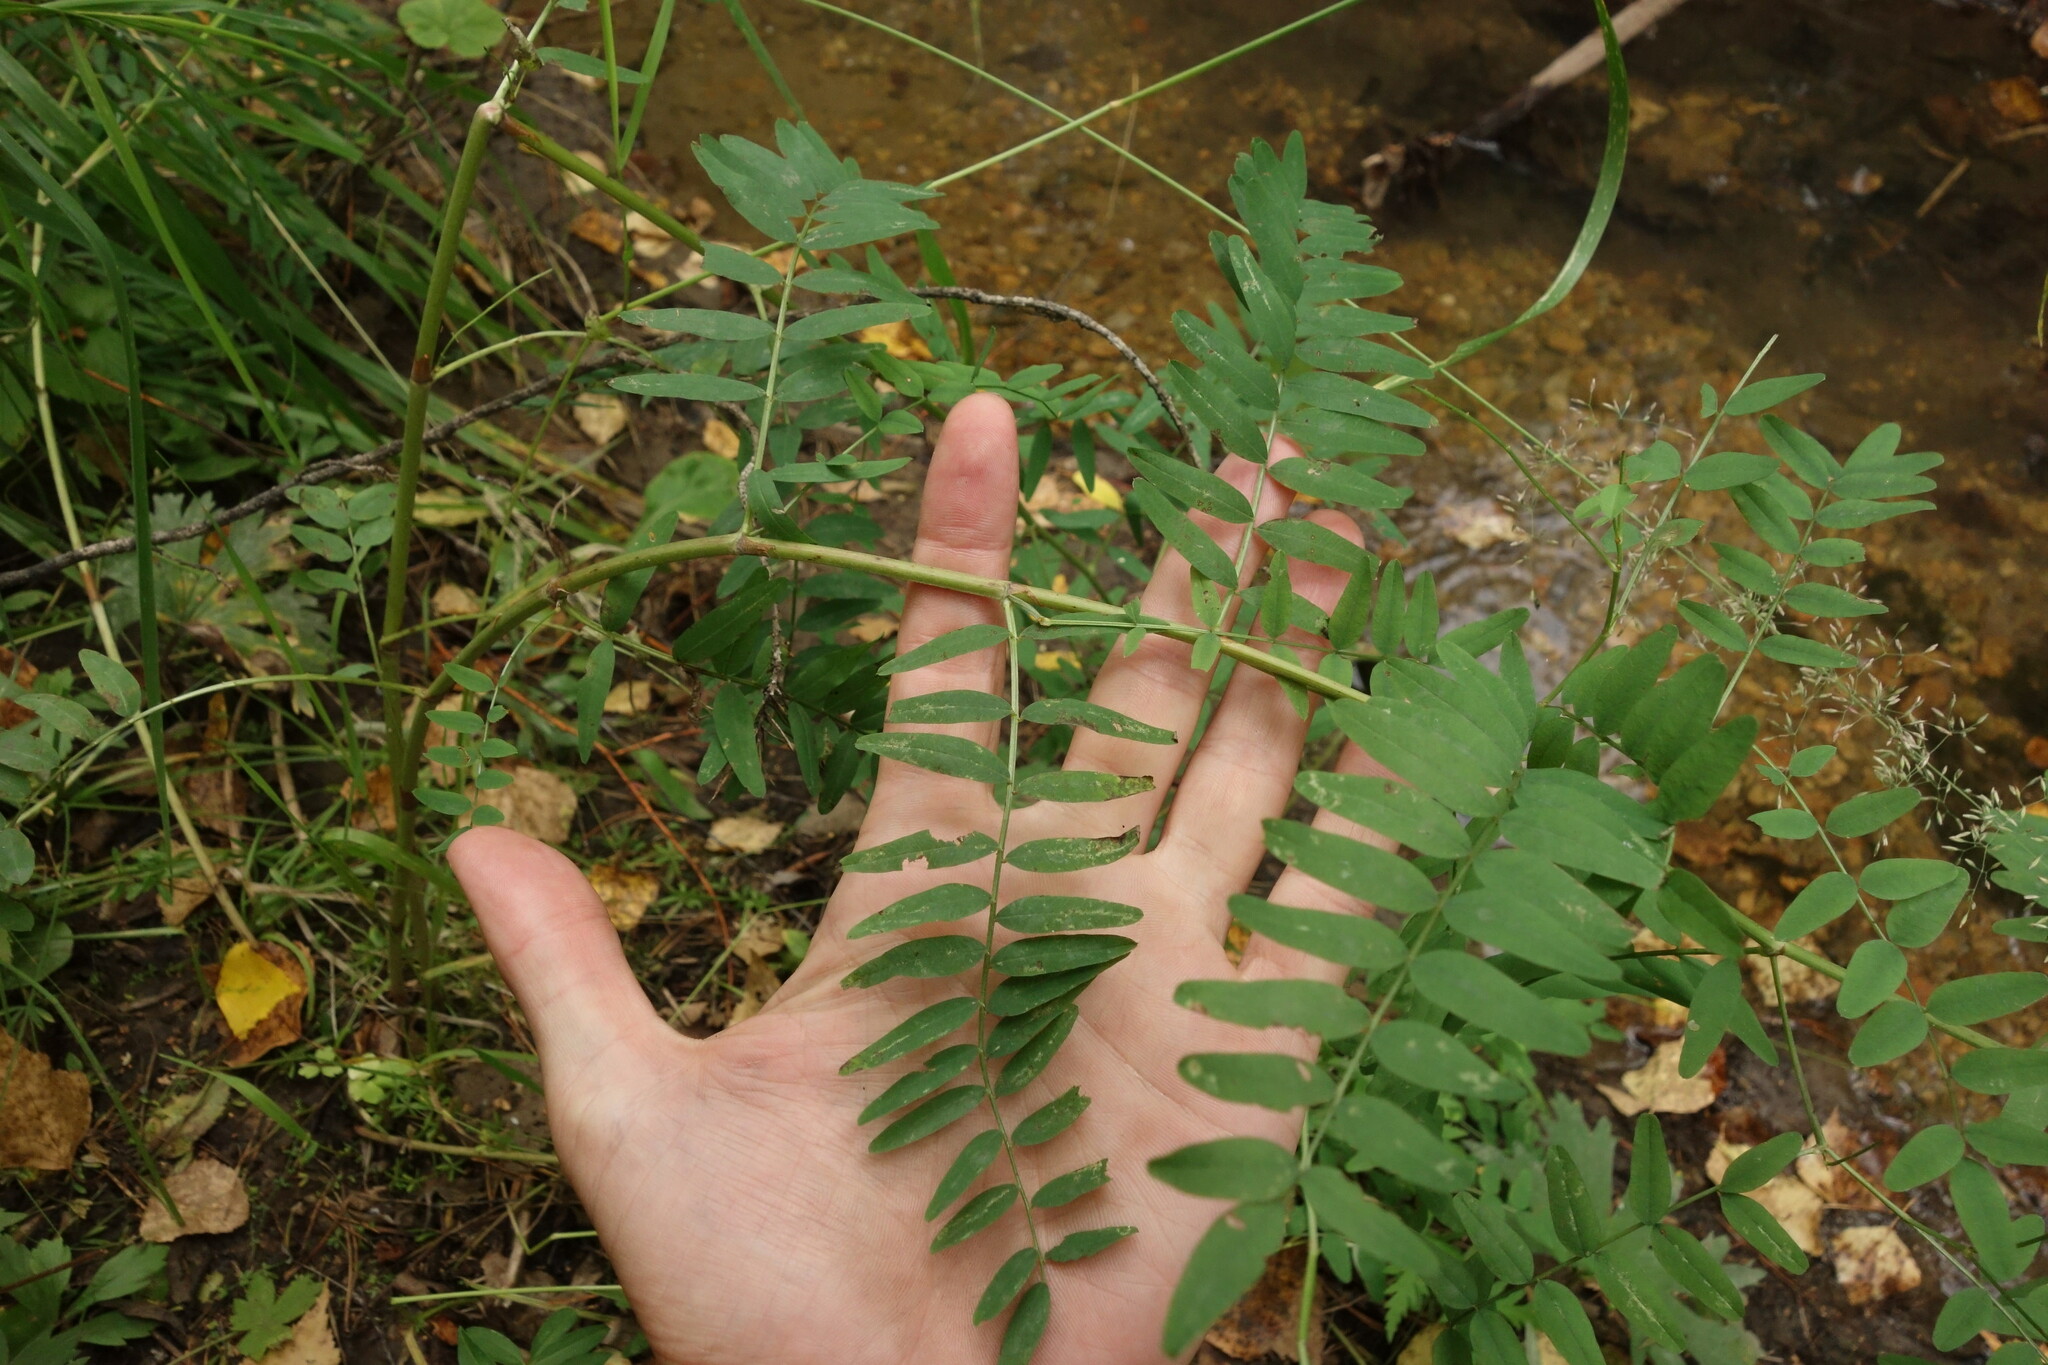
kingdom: Plantae
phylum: Tracheophyta
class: Magnoliopsida
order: Fabales
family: Fabaceae
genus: Hedysarum
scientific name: Hedysarum alpinum
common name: Alpine sweet-vetch
